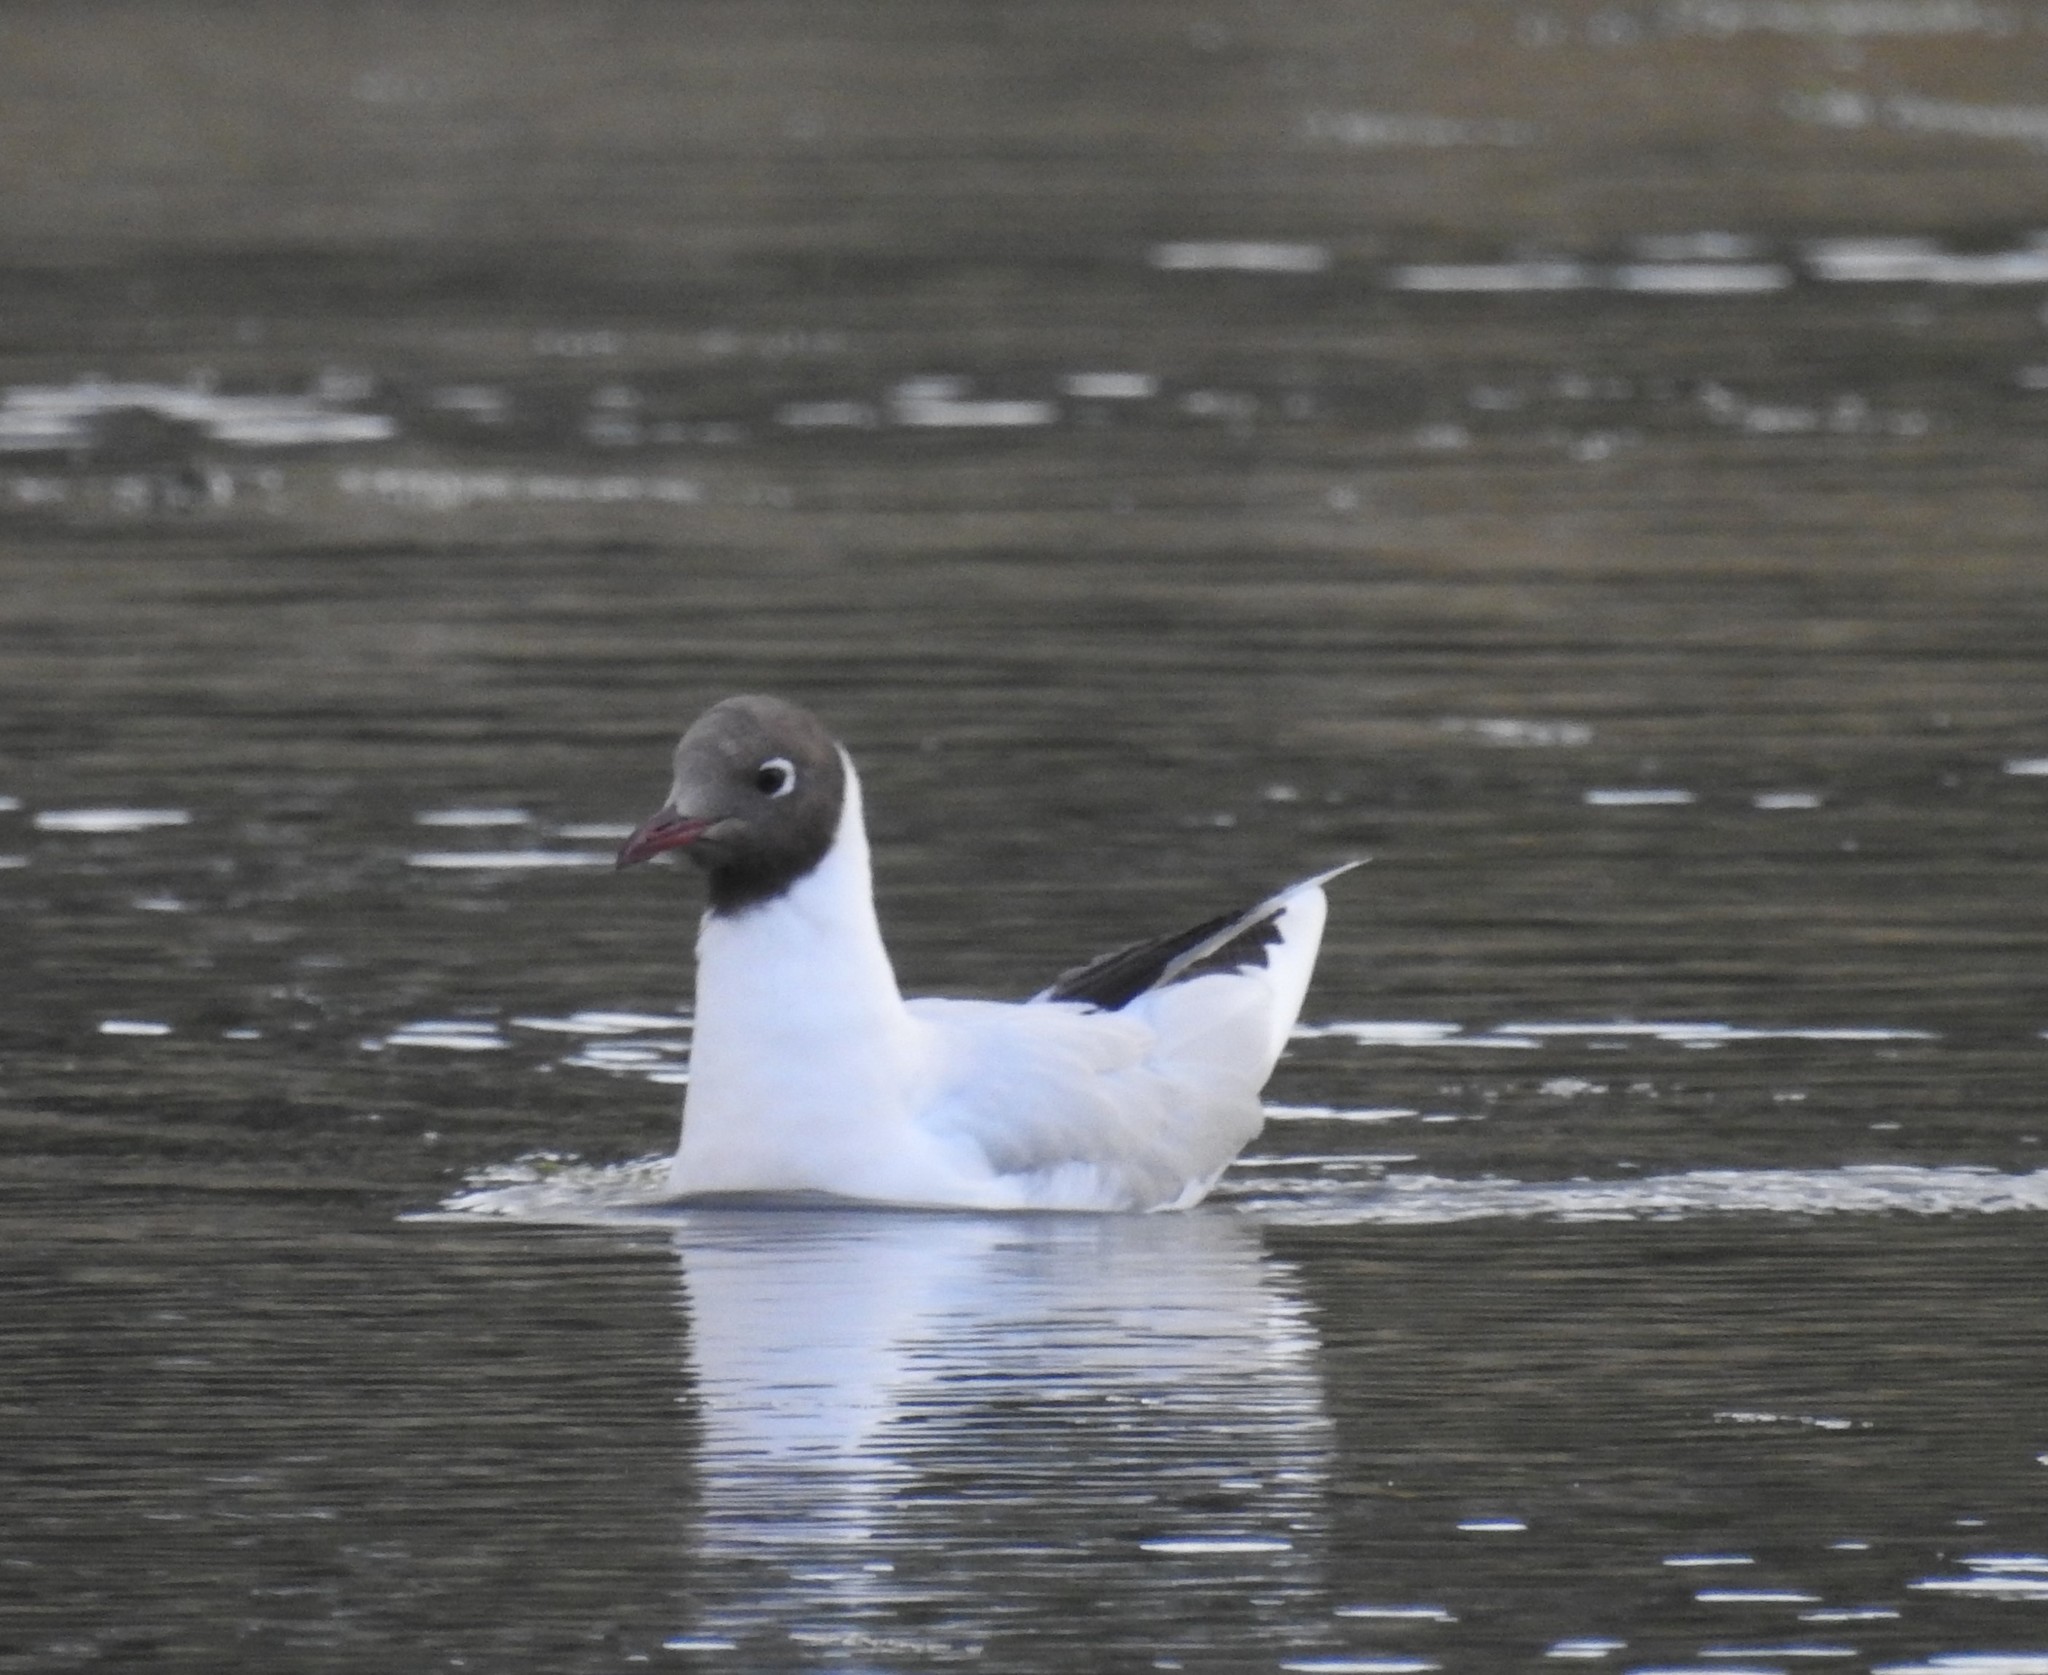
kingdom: Animalia
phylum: Chordata
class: Aves
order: Charadriiformes
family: Laridae
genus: Chroicocephalus
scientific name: Chroicocephalus maculipennis
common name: Brown-hooded gull
